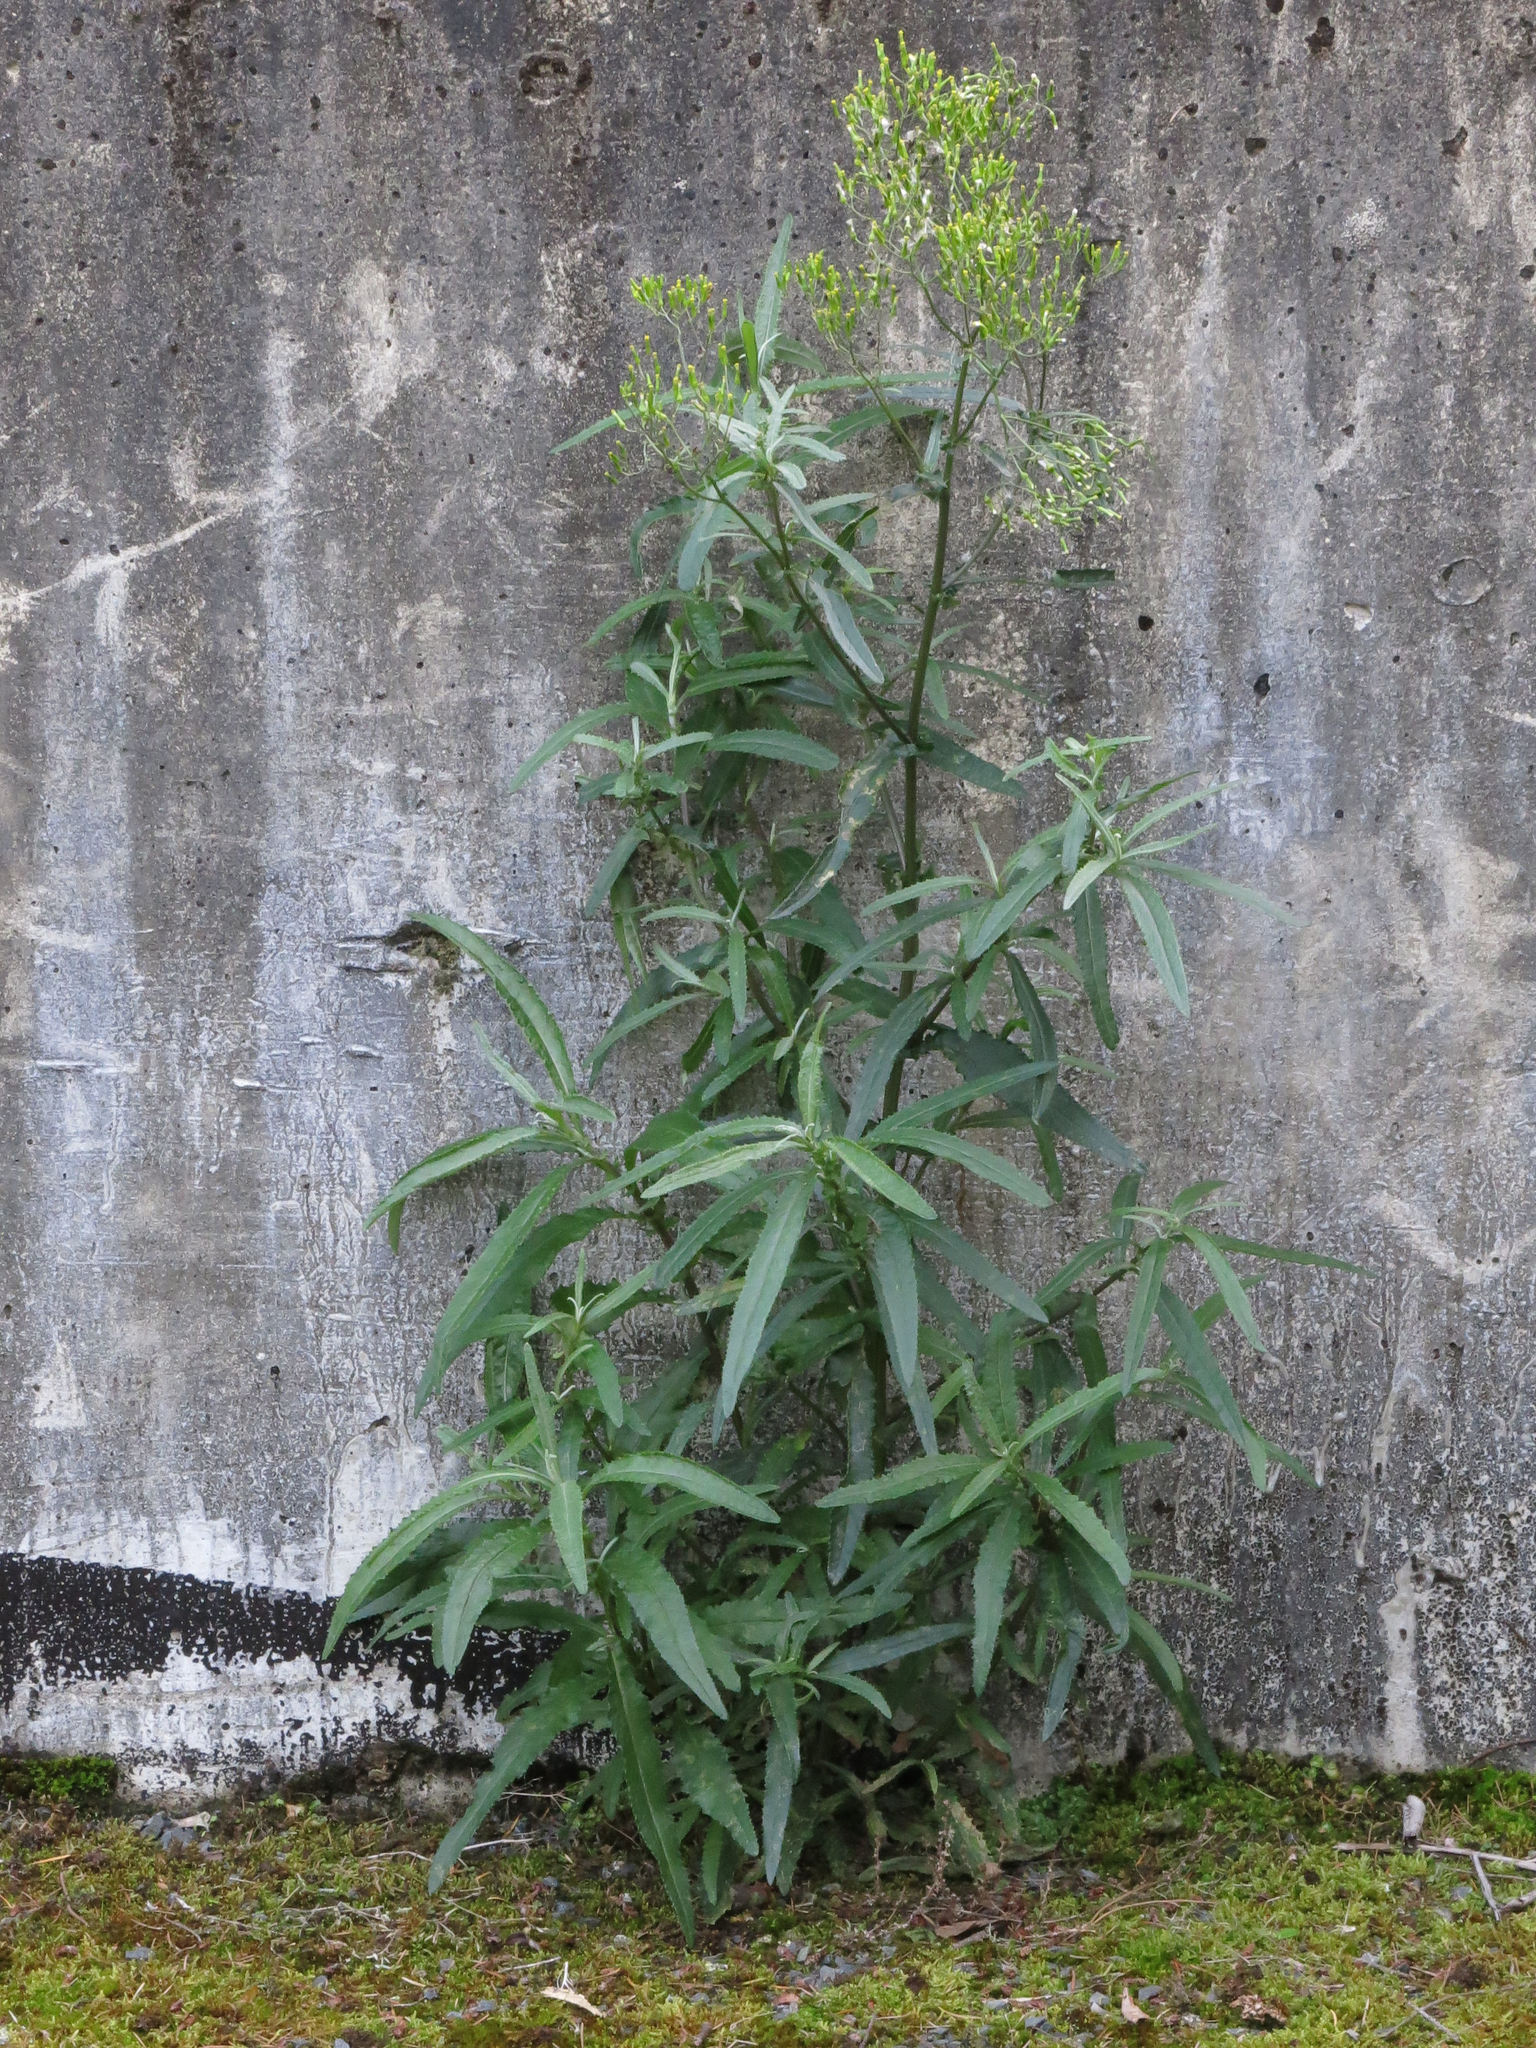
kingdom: Plantae
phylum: Tracheophyta
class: Magnoliopsida
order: Asterales
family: Asteraceae
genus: Senecio
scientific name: Senecio minimus
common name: Toothed fireweed
